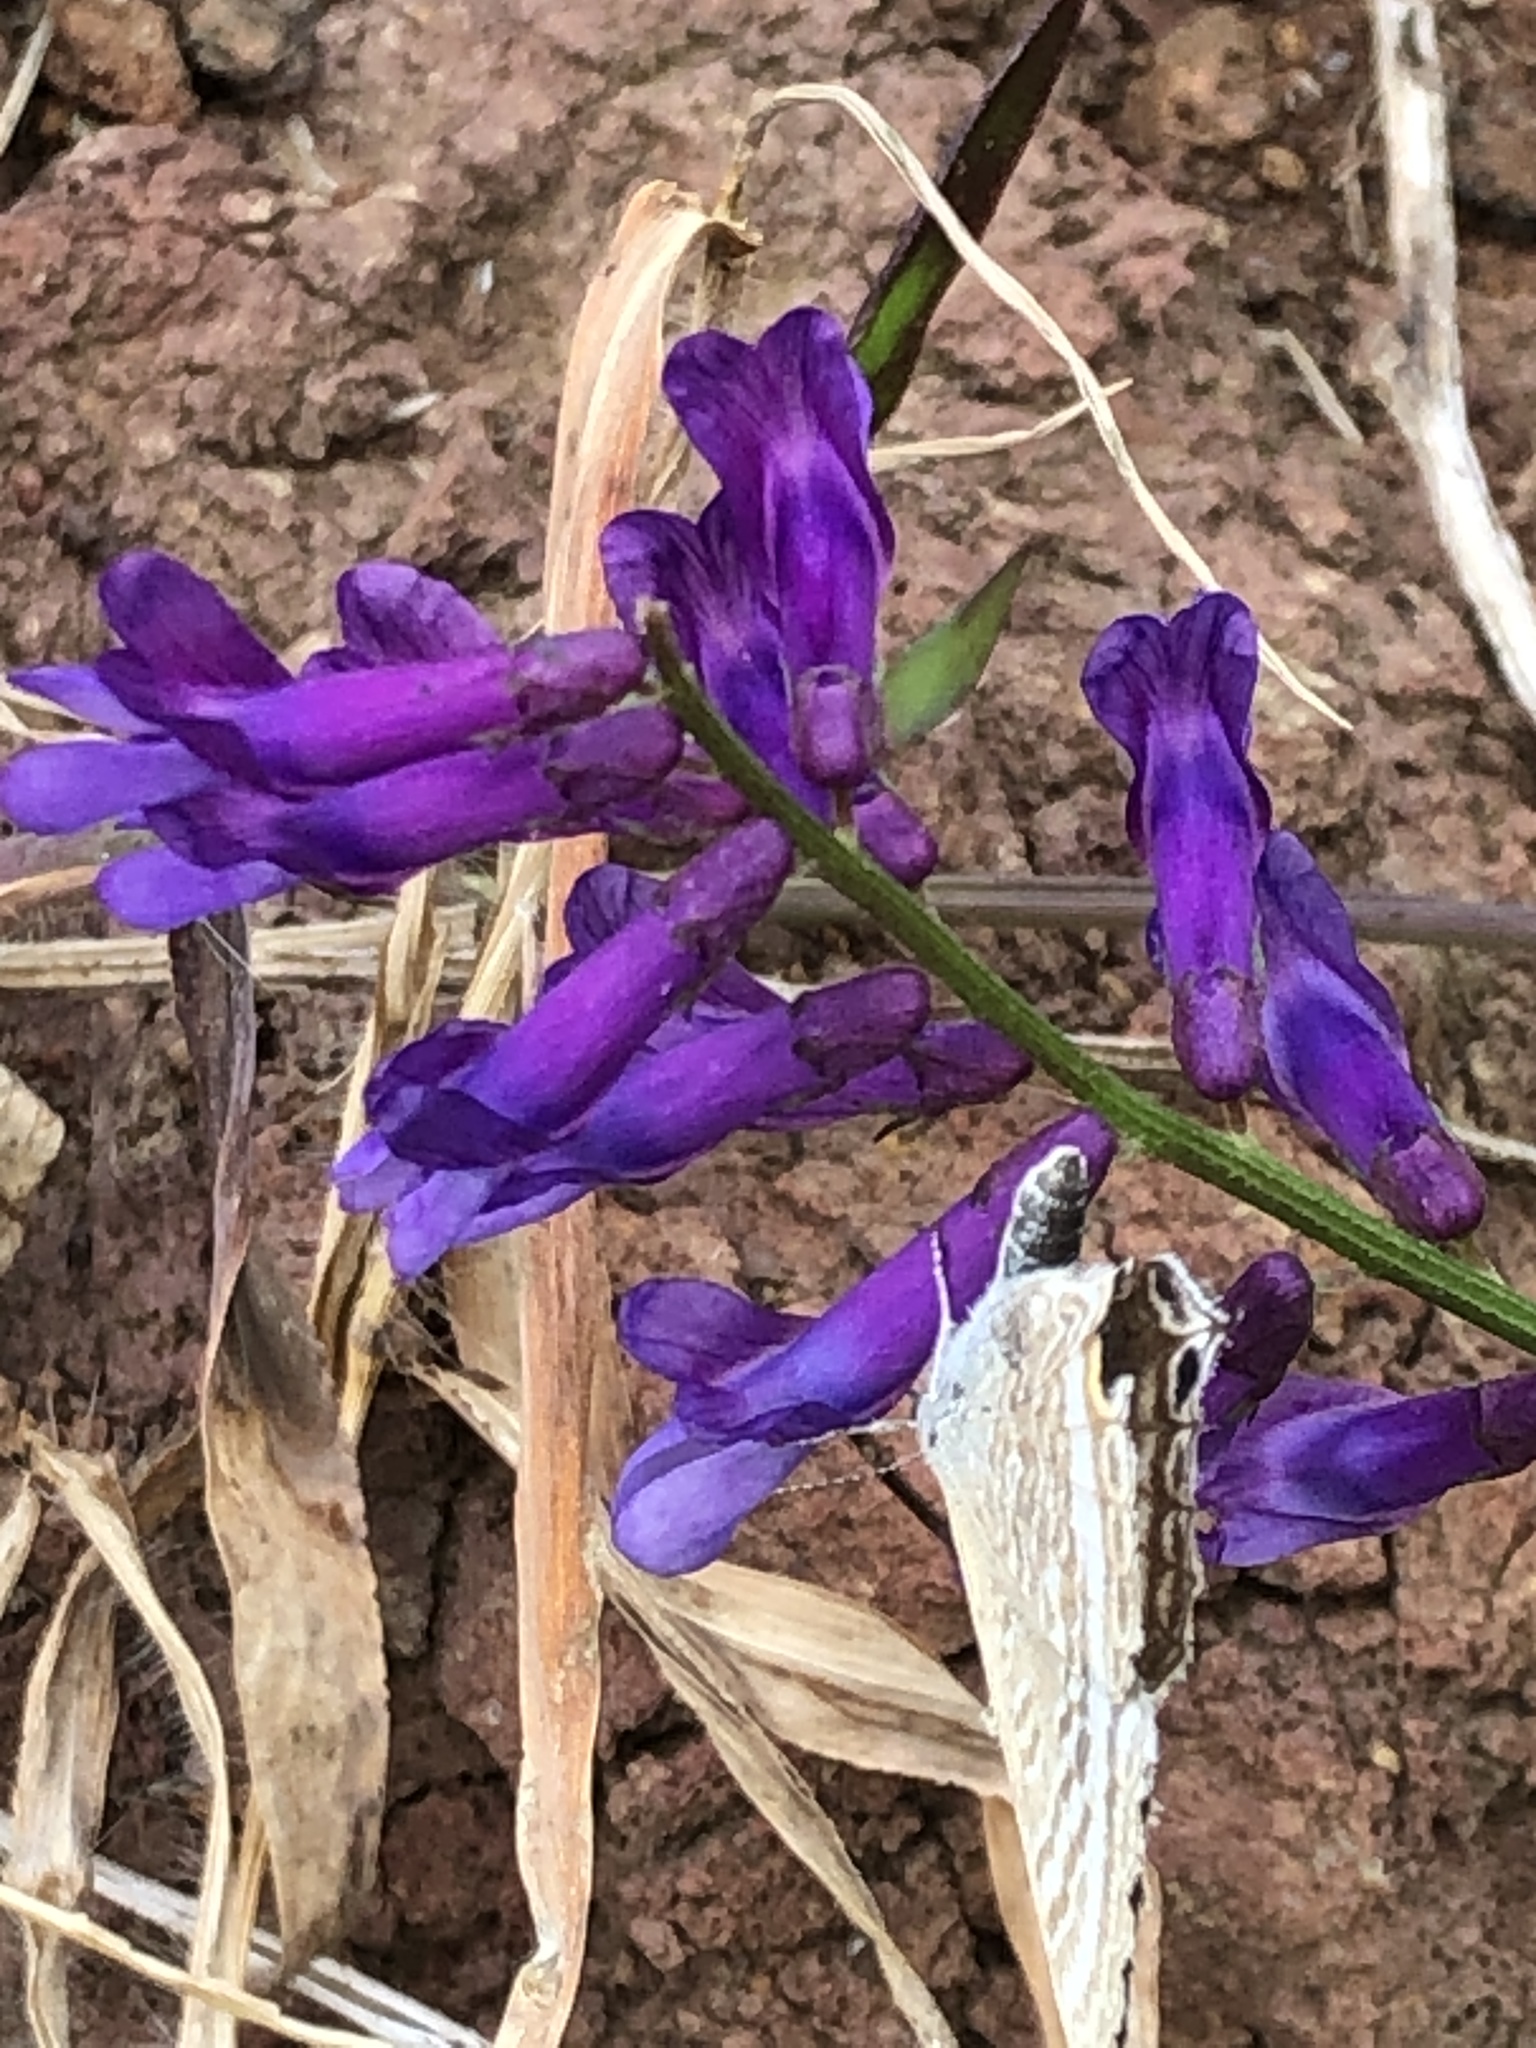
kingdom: Animalia
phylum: Arthropoda
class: Insecta
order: Lepidoptera
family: Lycaenidae
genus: Lampides
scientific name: Lampides boeticus
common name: Long-tailed blue
